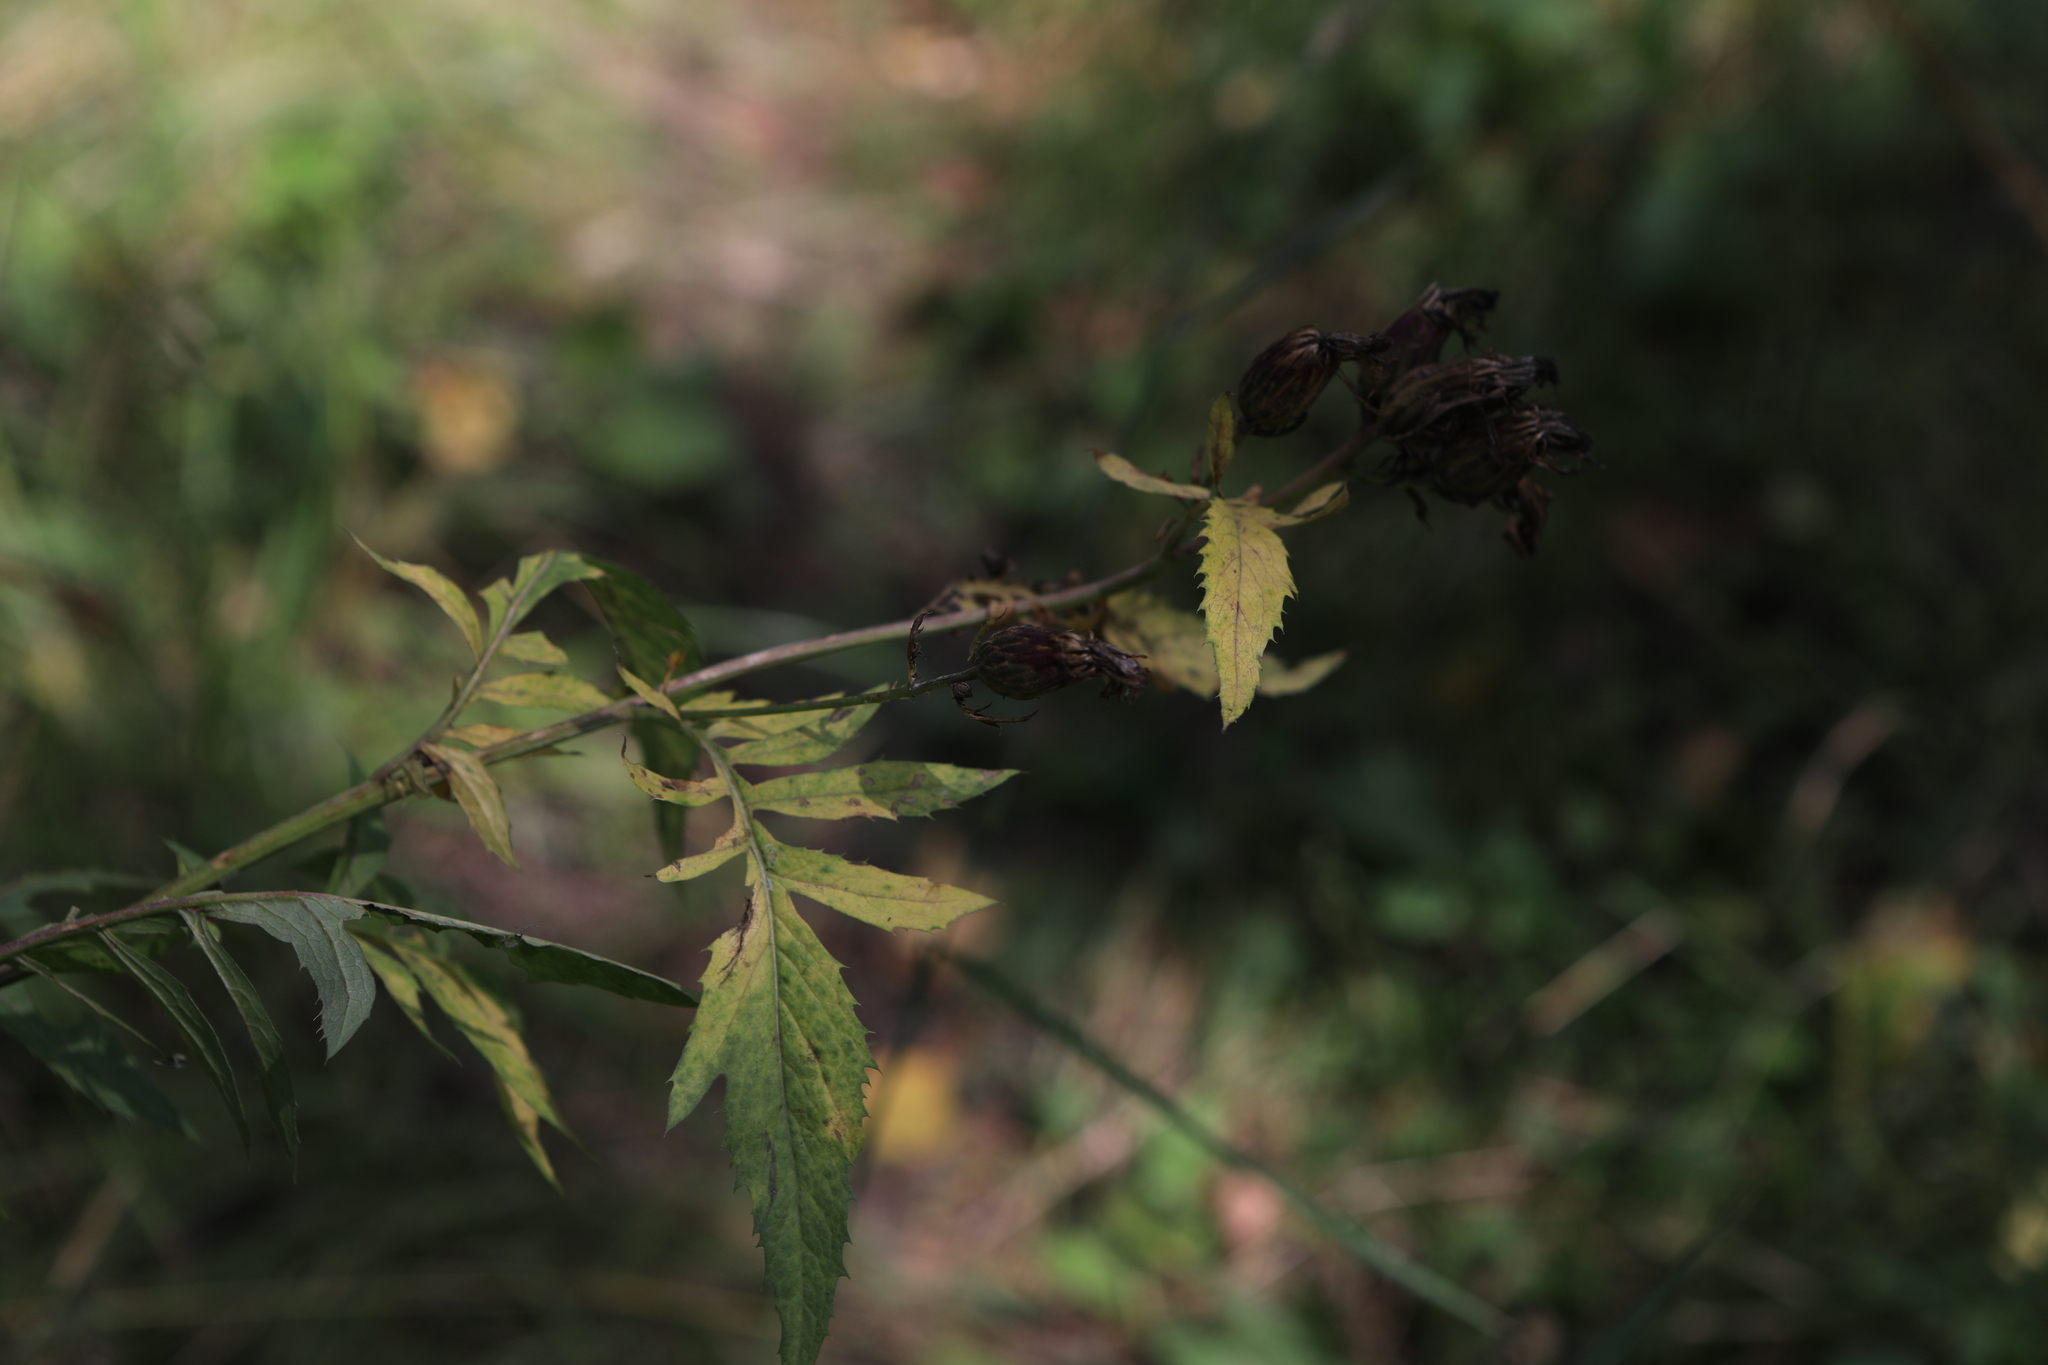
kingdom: Plantae
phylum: Tracheophyta
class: Magnoliopsida
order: Asterales
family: Asteraceae
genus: Serratula
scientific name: Serratula coronata
